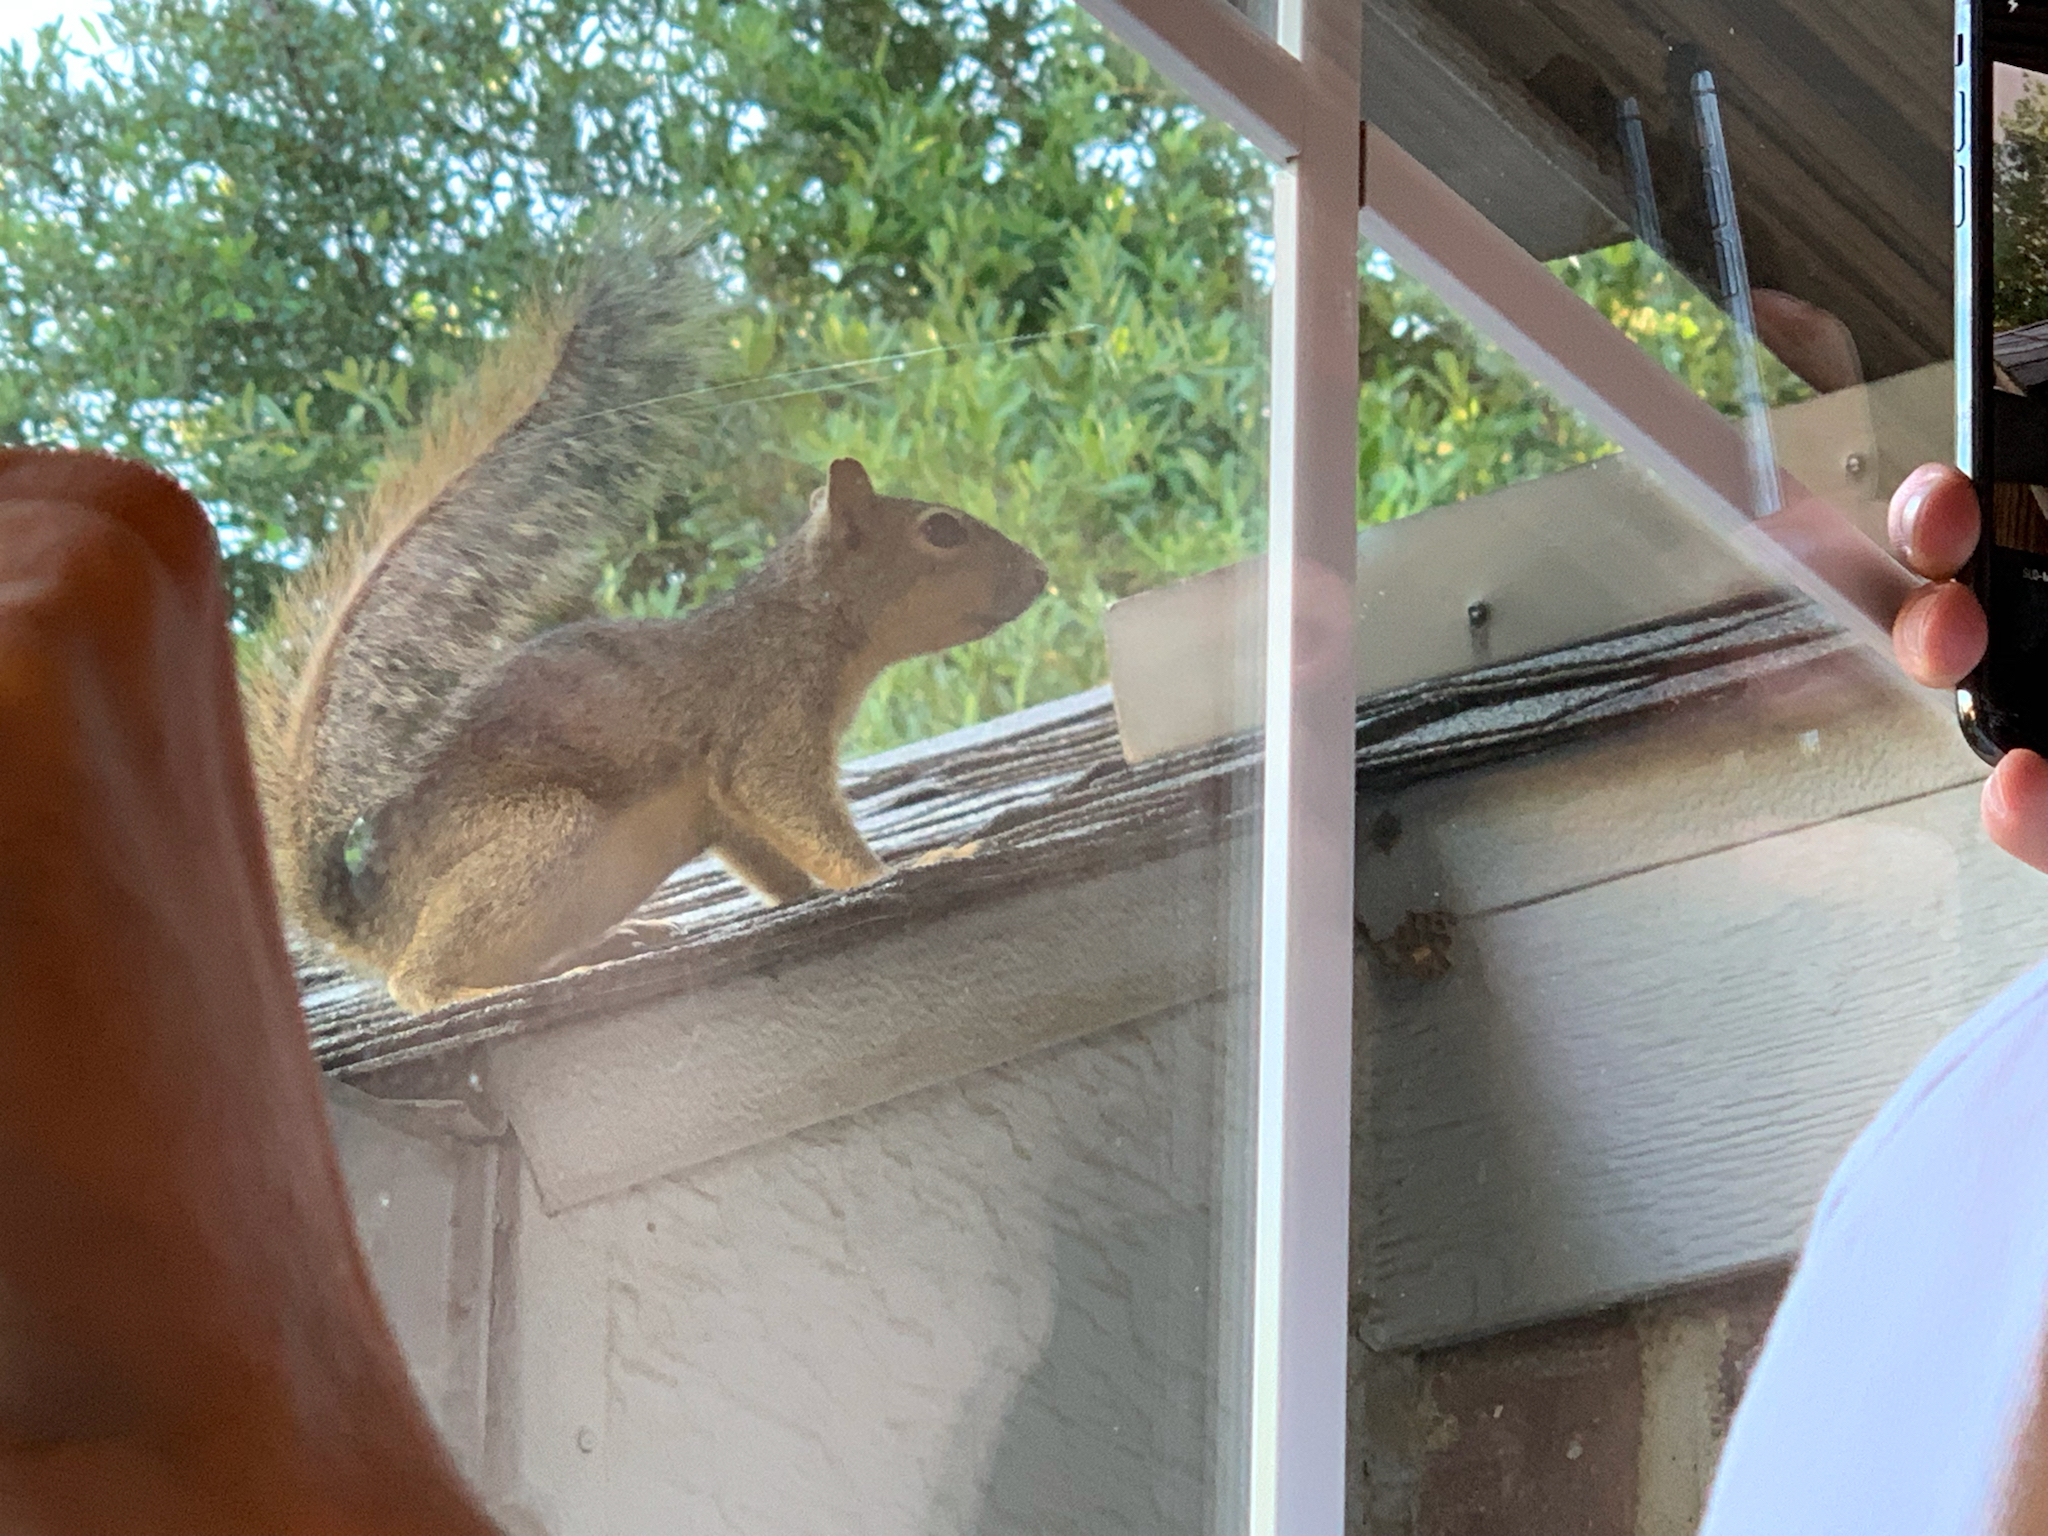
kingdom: Animalia
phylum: Chordata
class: Mammalia
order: Rodentia
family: Sciuridae
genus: Sciurus
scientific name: Sciurus niger
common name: Fox squirrel
